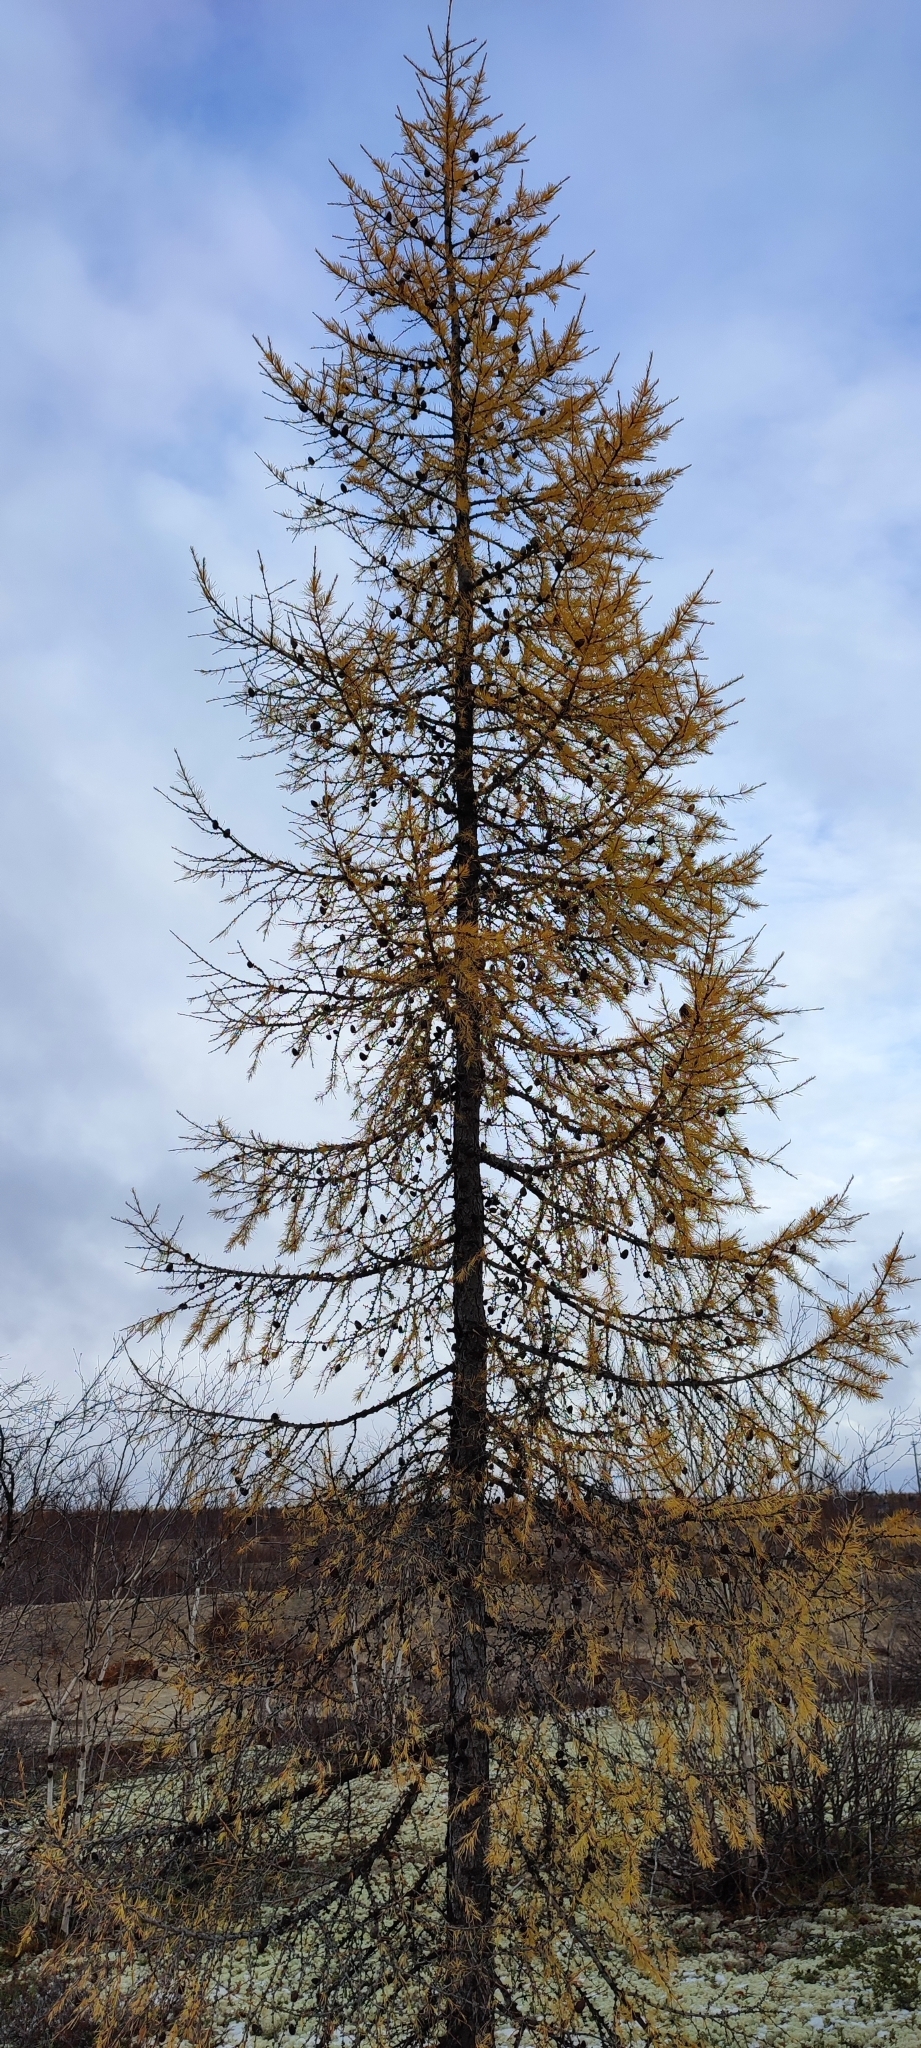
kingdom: Plantae
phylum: Tracheophyta
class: Pinopsida
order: Pinales
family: Pinaceae
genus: Larix
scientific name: Larix sibirica
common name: Siberian larch
